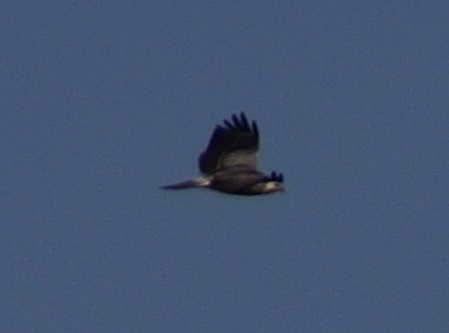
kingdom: Animalia
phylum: Chordata
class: Aves
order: Accipitriformes
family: Accipitridae
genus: Buteo
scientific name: Buteo buteo
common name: Common buzzard
